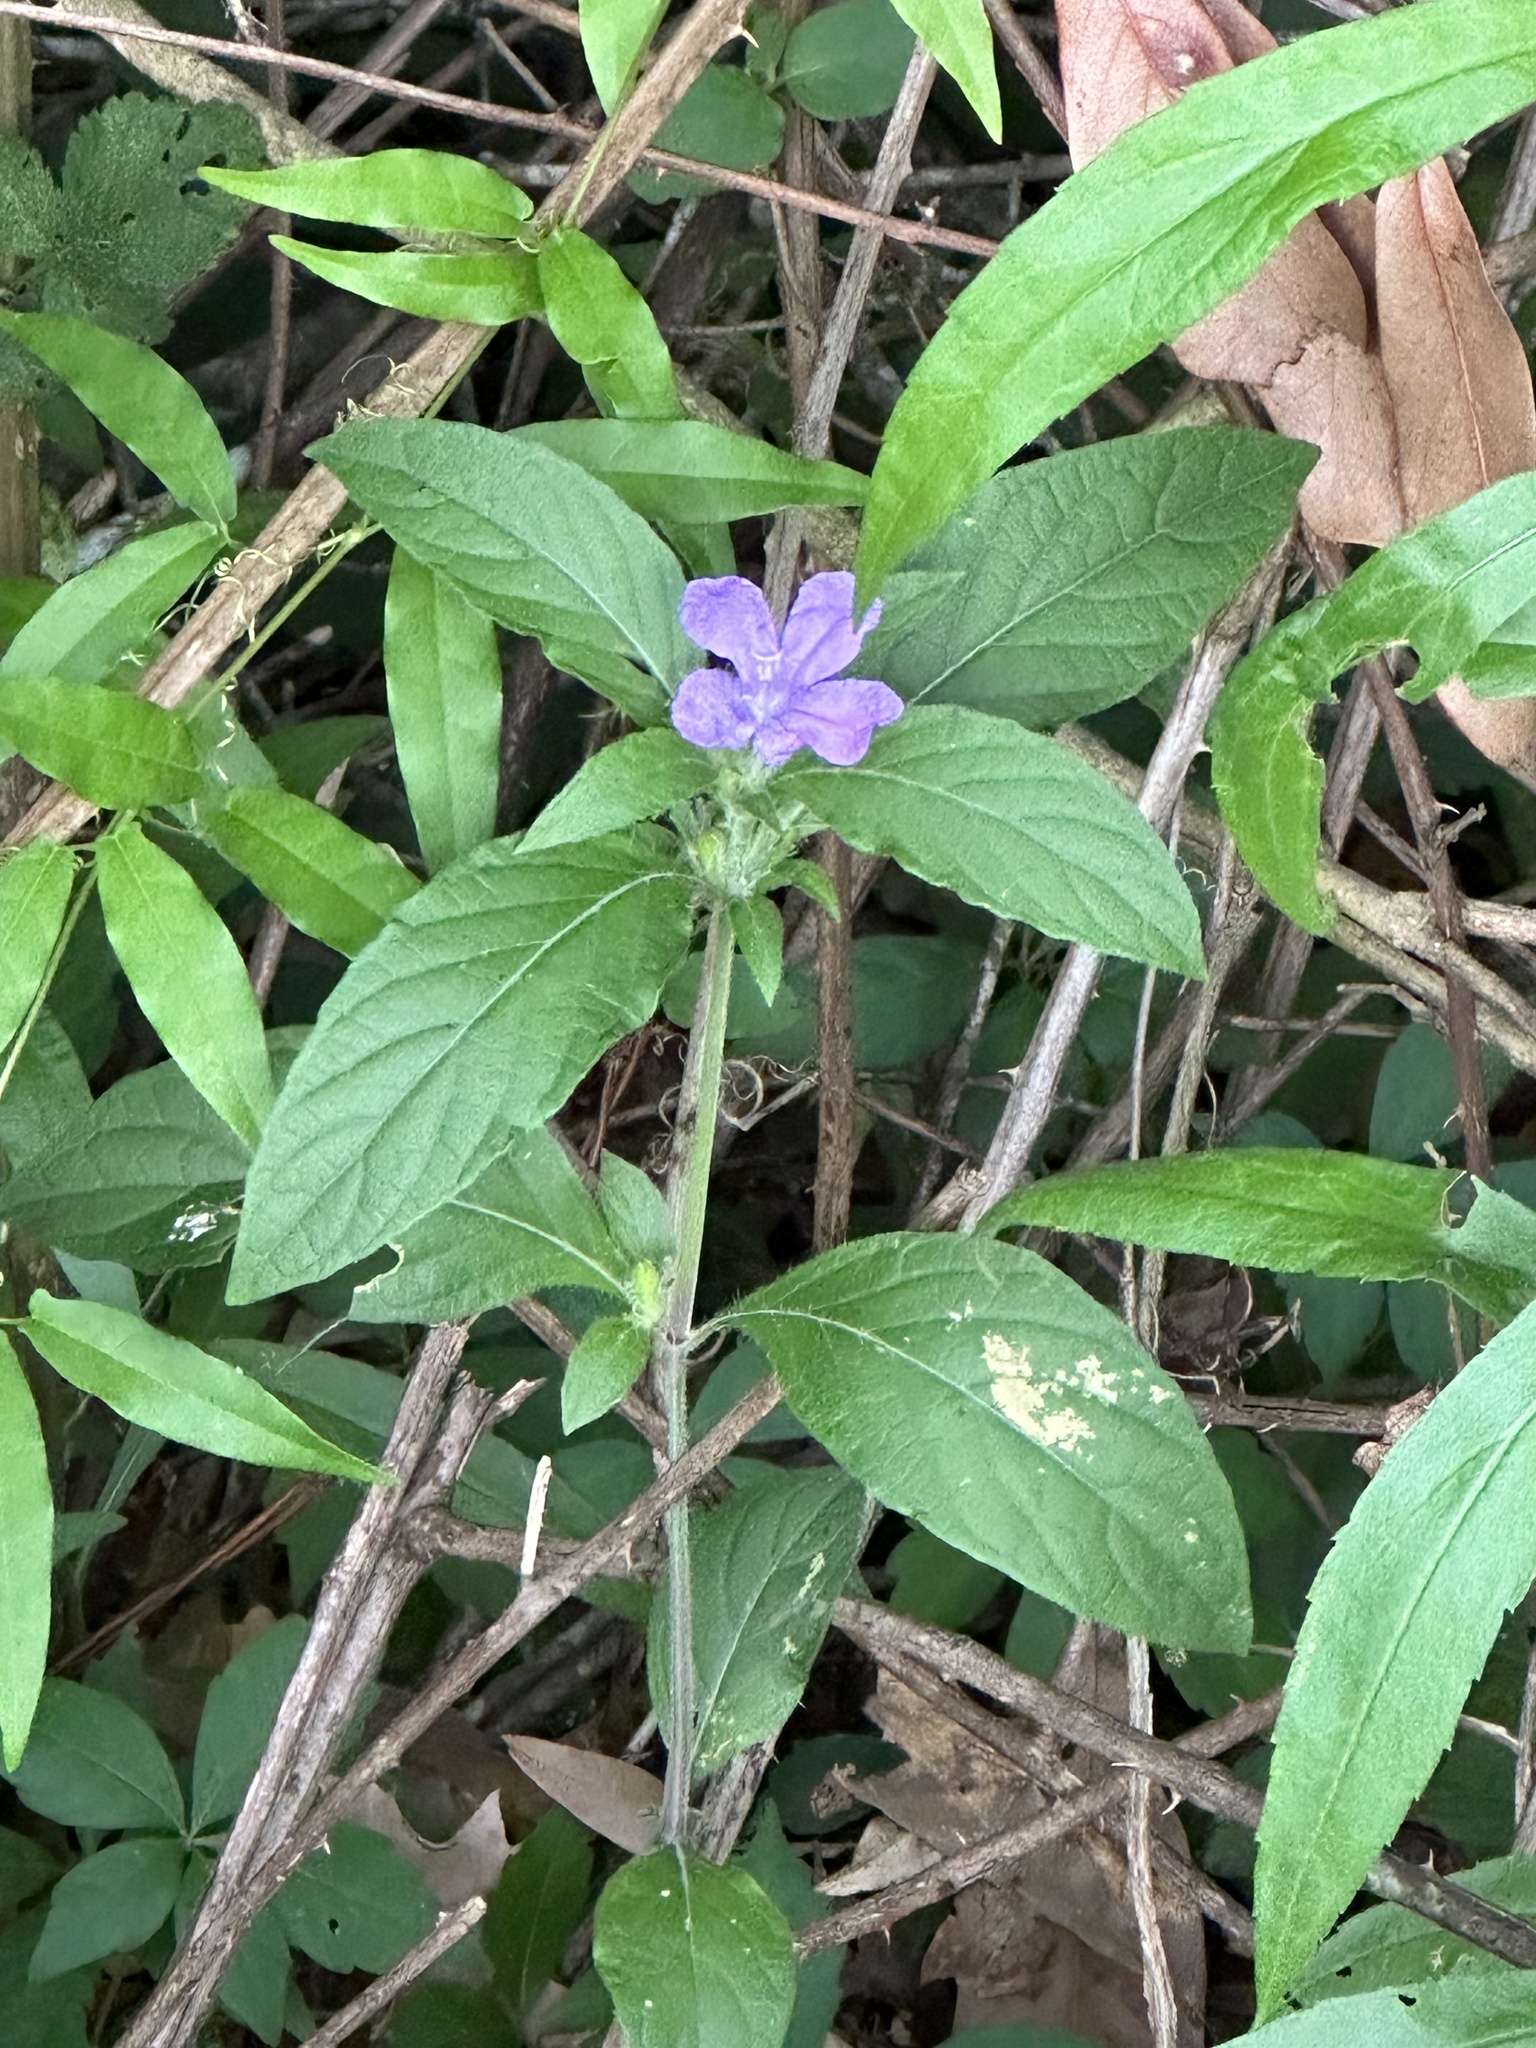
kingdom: Plantae
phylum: Tracheophyta
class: Magnoliopsida
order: Lamiales
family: Acanthaceae
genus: Ruellia
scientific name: Ruellia caroliniensis
